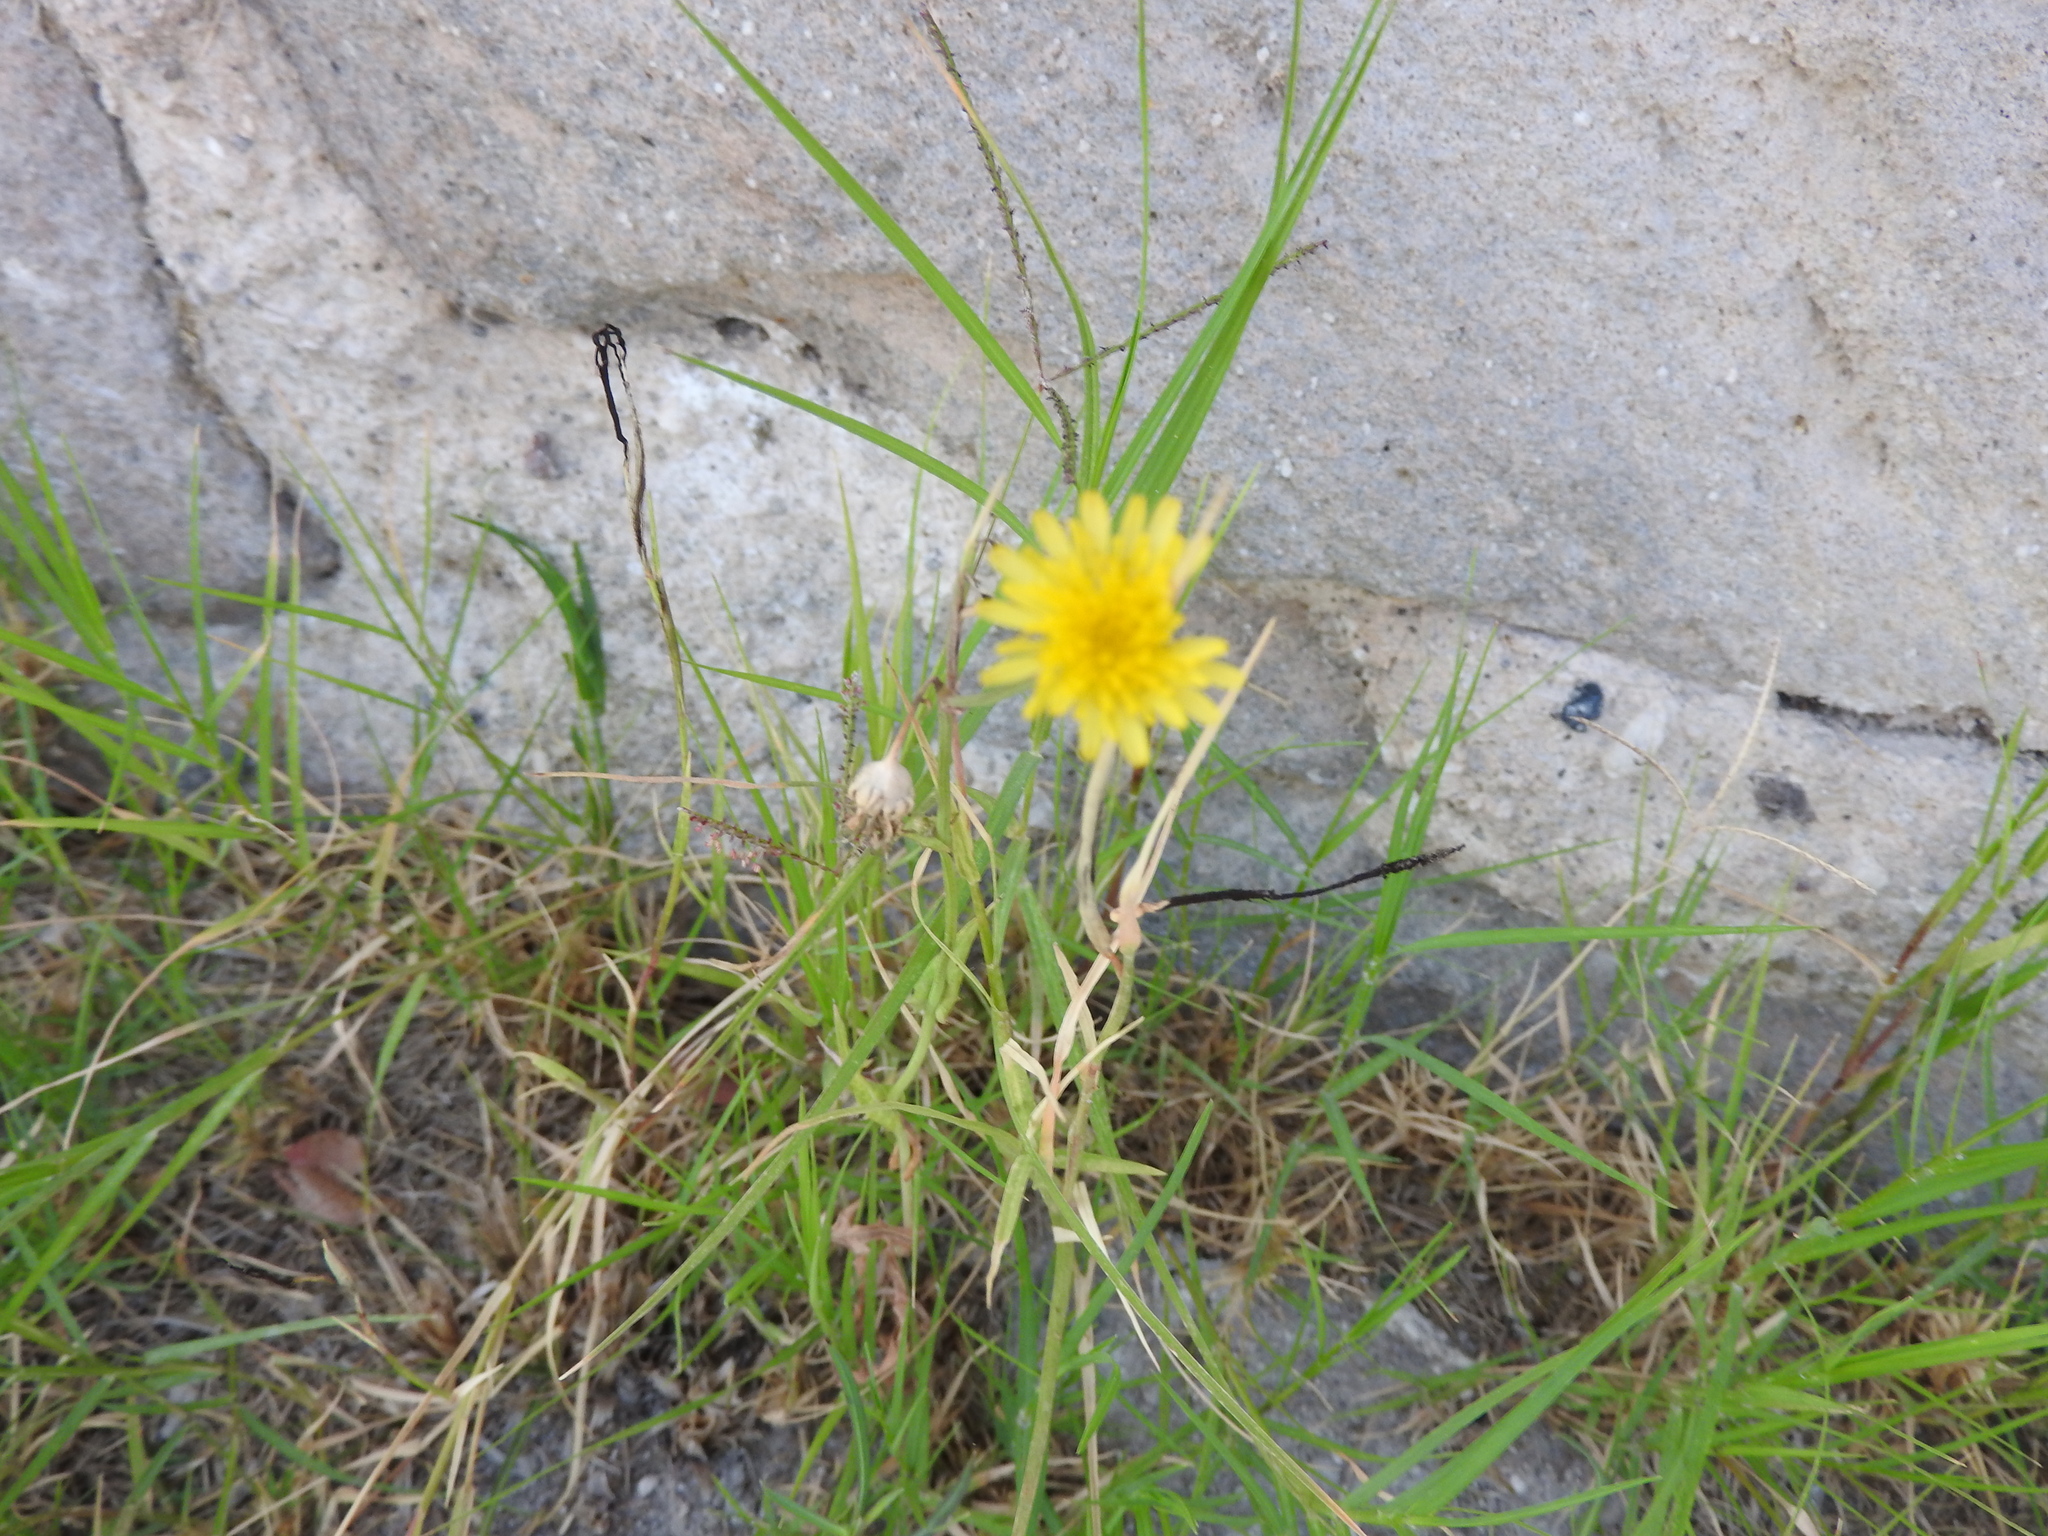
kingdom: Plantae
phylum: Tracheophyta
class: Magnoliopsida
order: Asterales
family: Asteraceae
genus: Helminthotheca
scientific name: Helminthotheca echioides
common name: Ox-tongue
